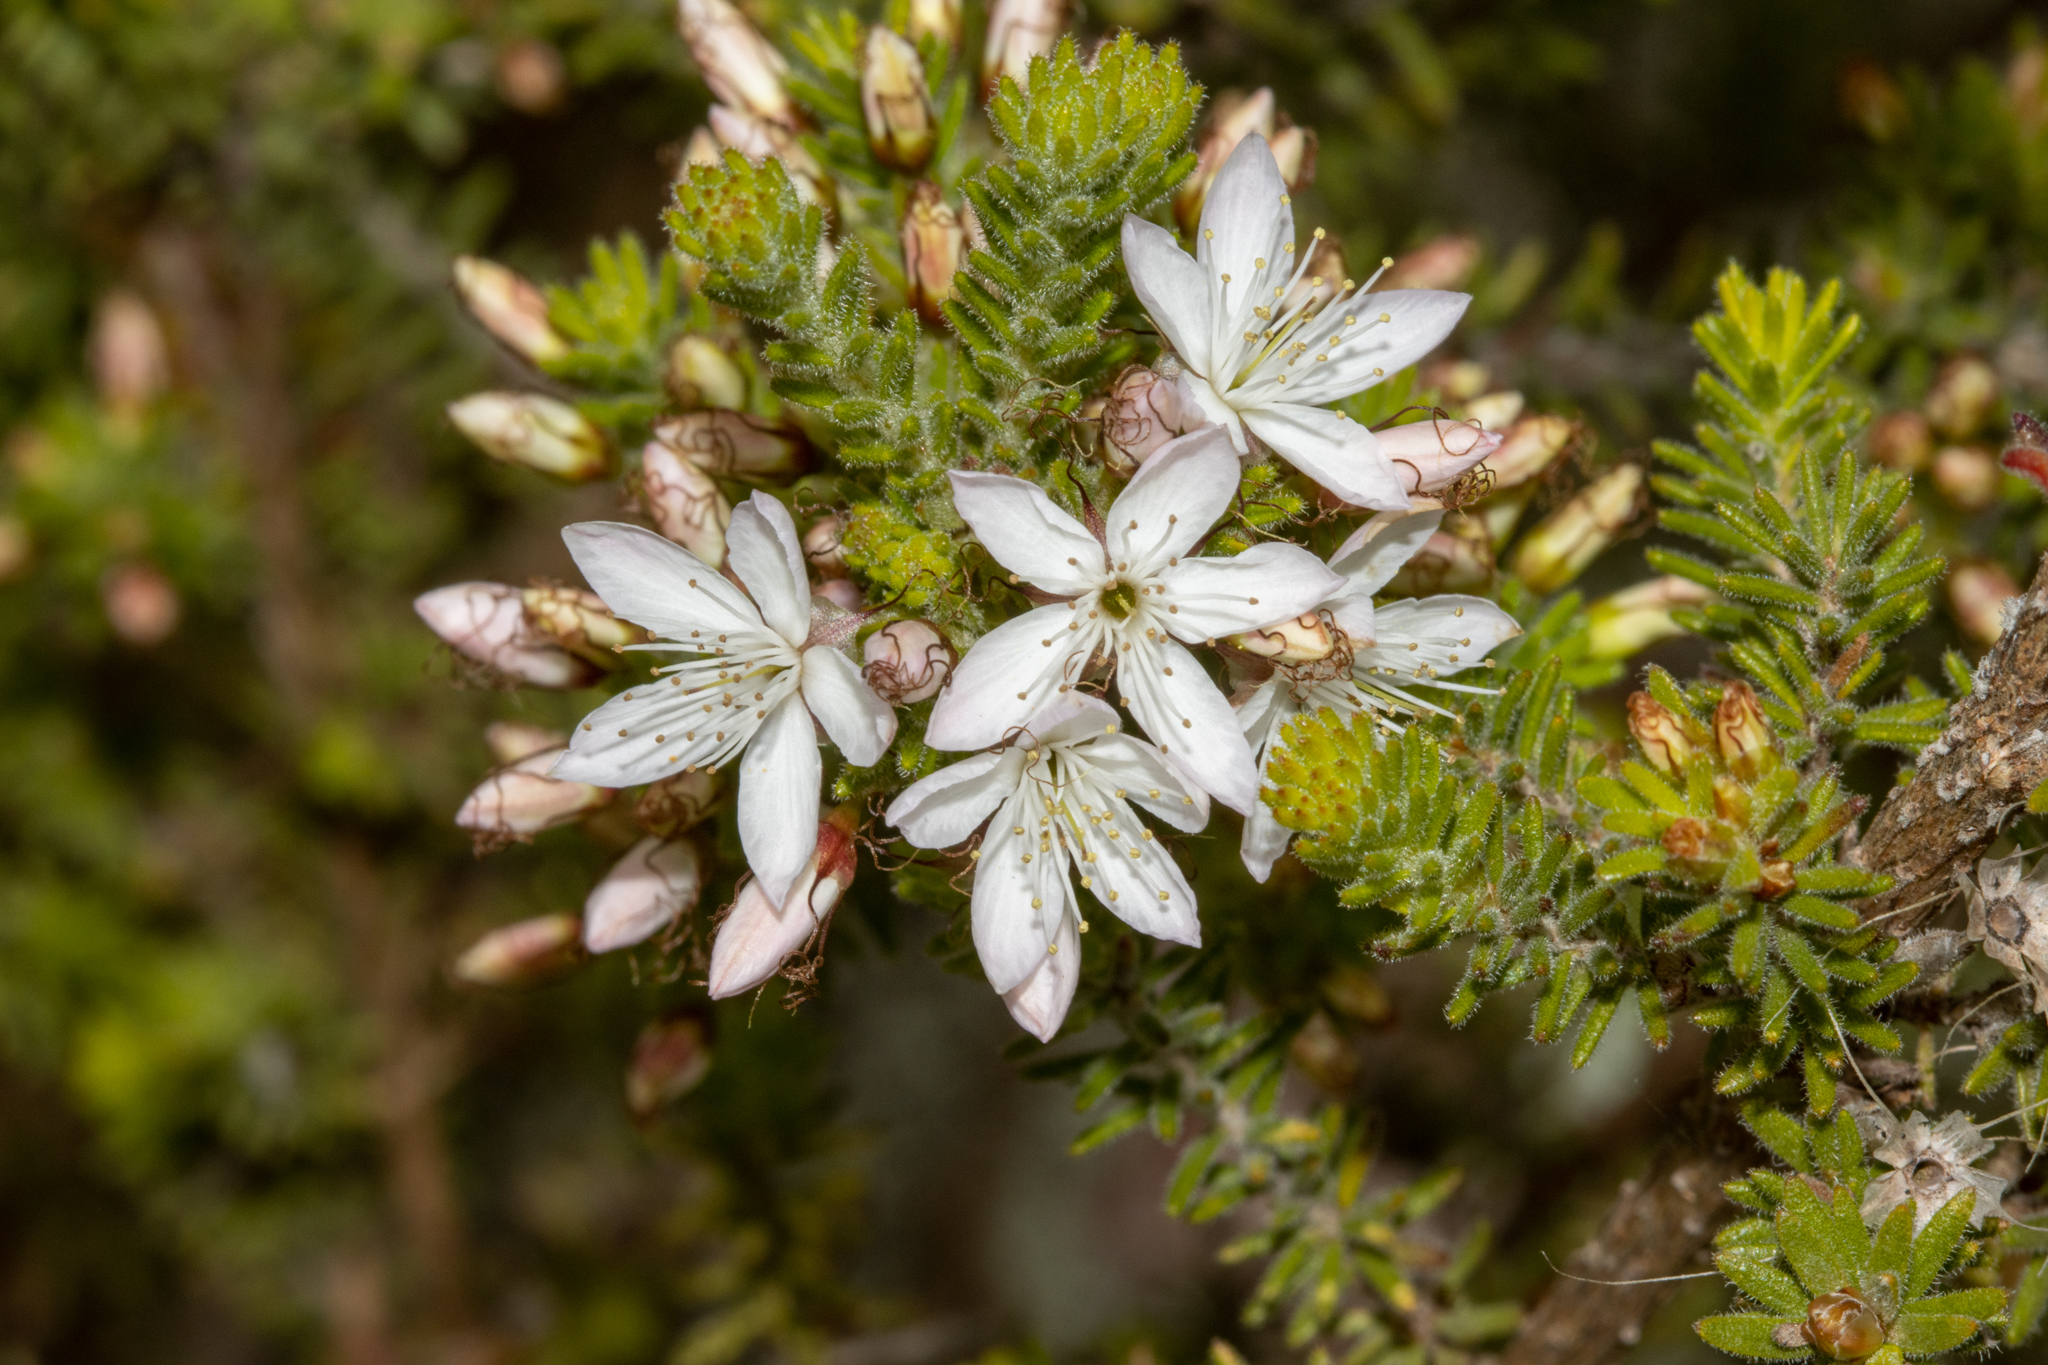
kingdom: Plantae
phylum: Tracheophyta
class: Magnoliopsida
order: Myrtales
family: Myrtaceae
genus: Calytrix
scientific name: Calytrix tetragona
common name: Common fringe myrtle
